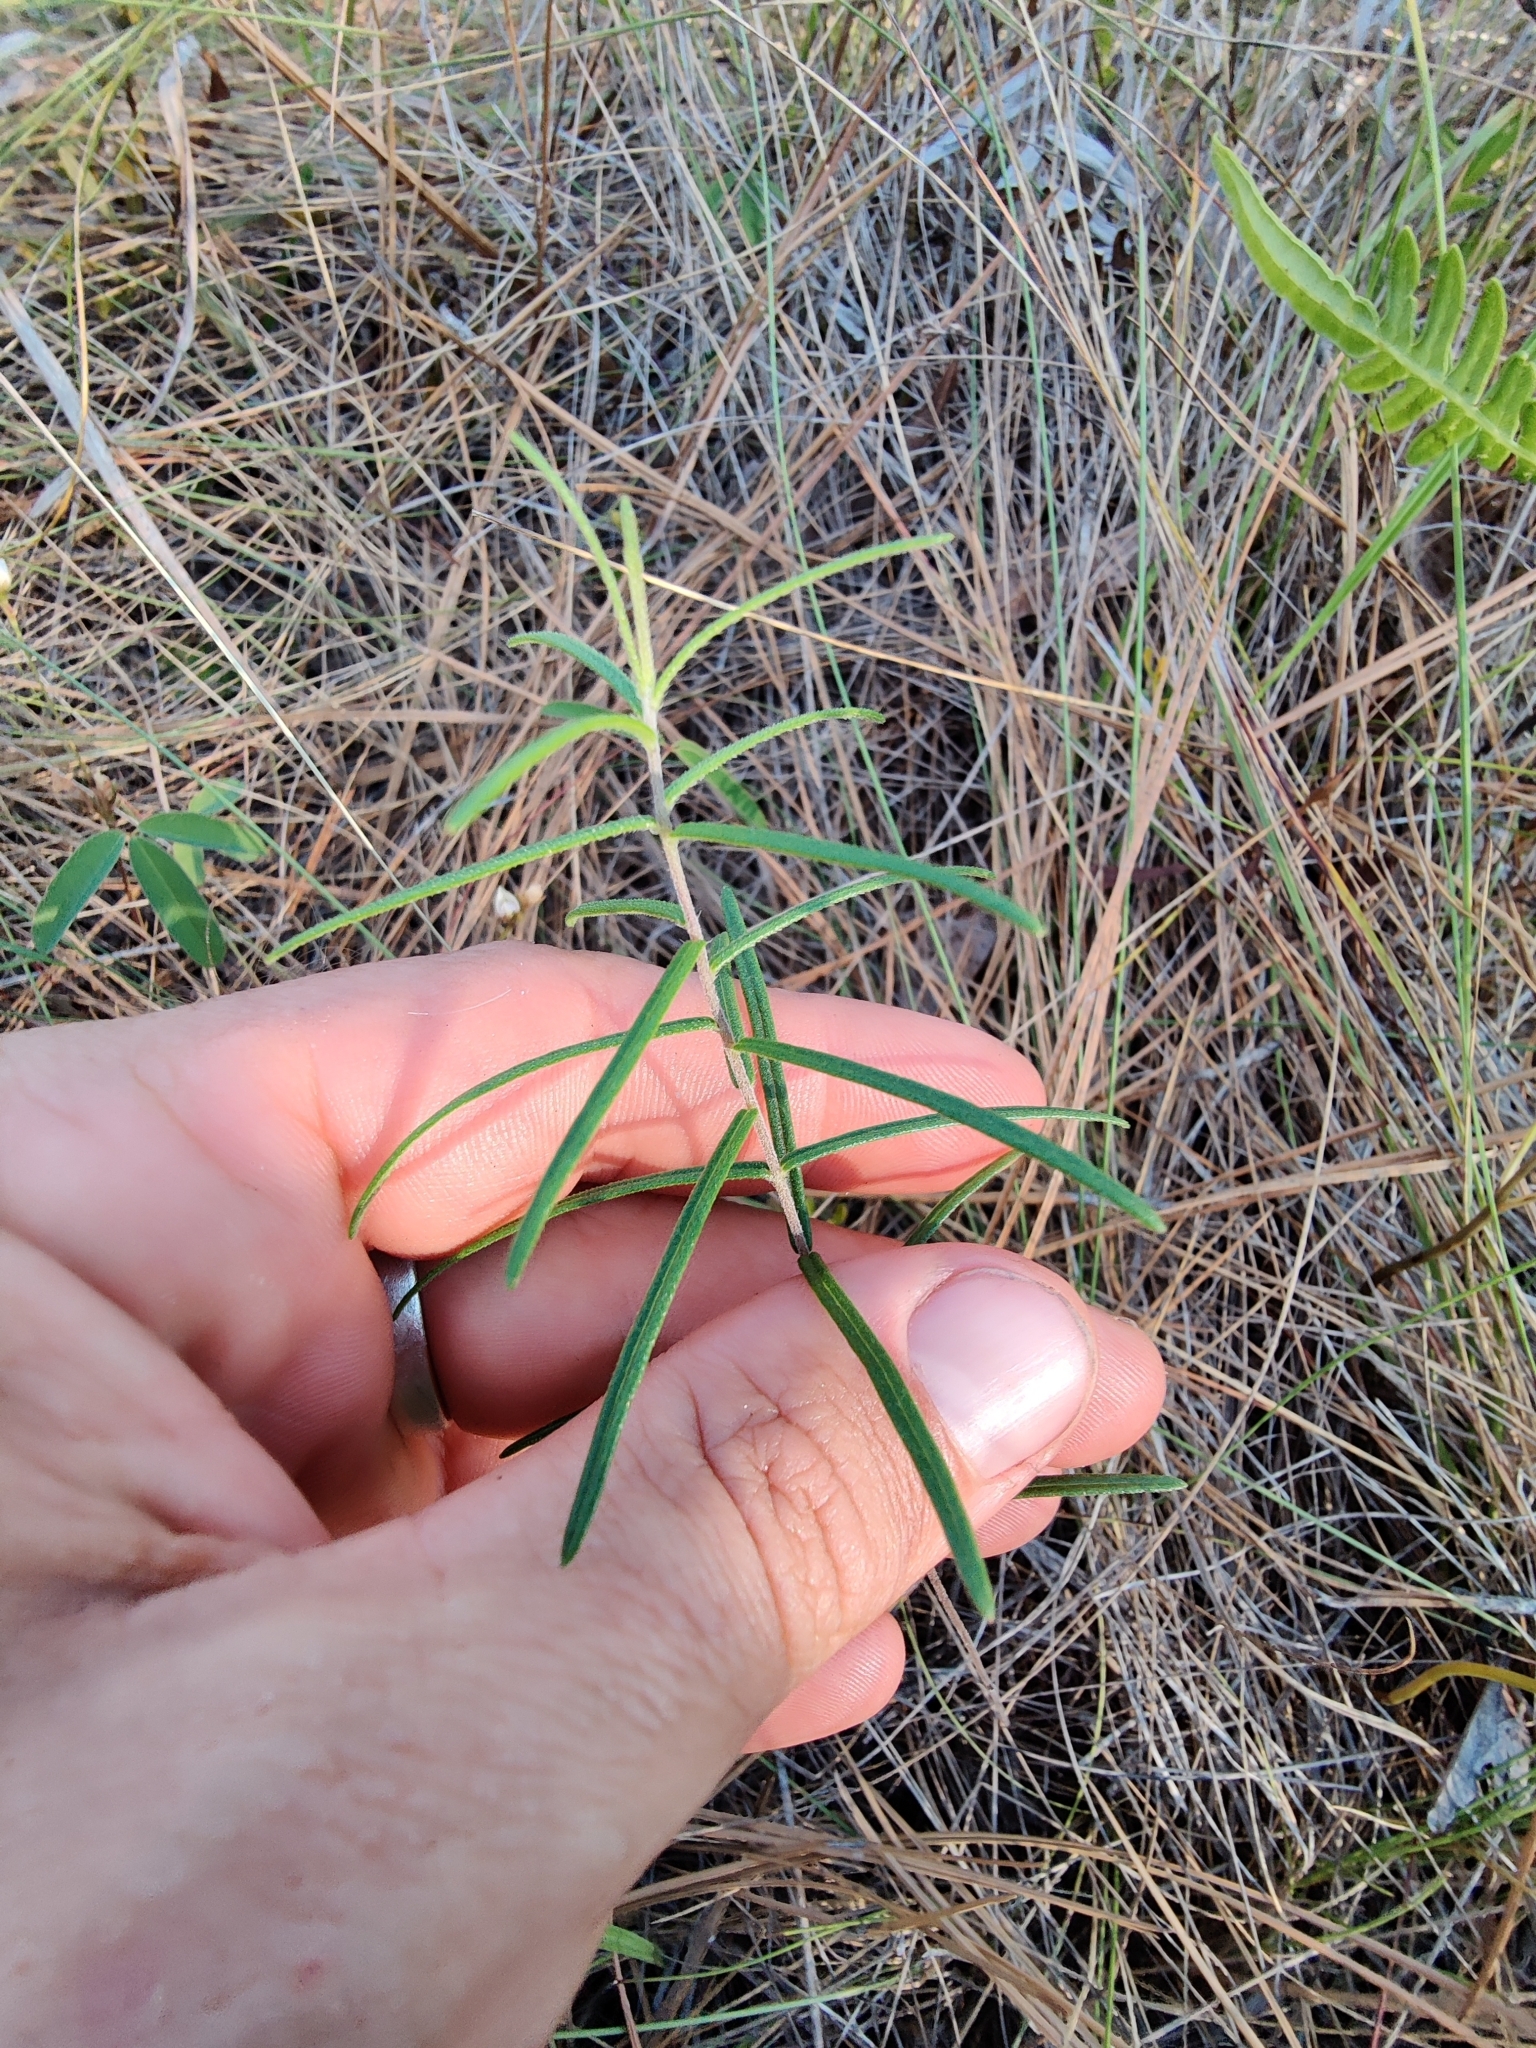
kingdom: Plantae
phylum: Tracheophyta
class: Magnoliopsida
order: Asterales
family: Asteraceae
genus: Phoebanthus
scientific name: Phoebanthus tenuifolia
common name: Pineland false sunflower
